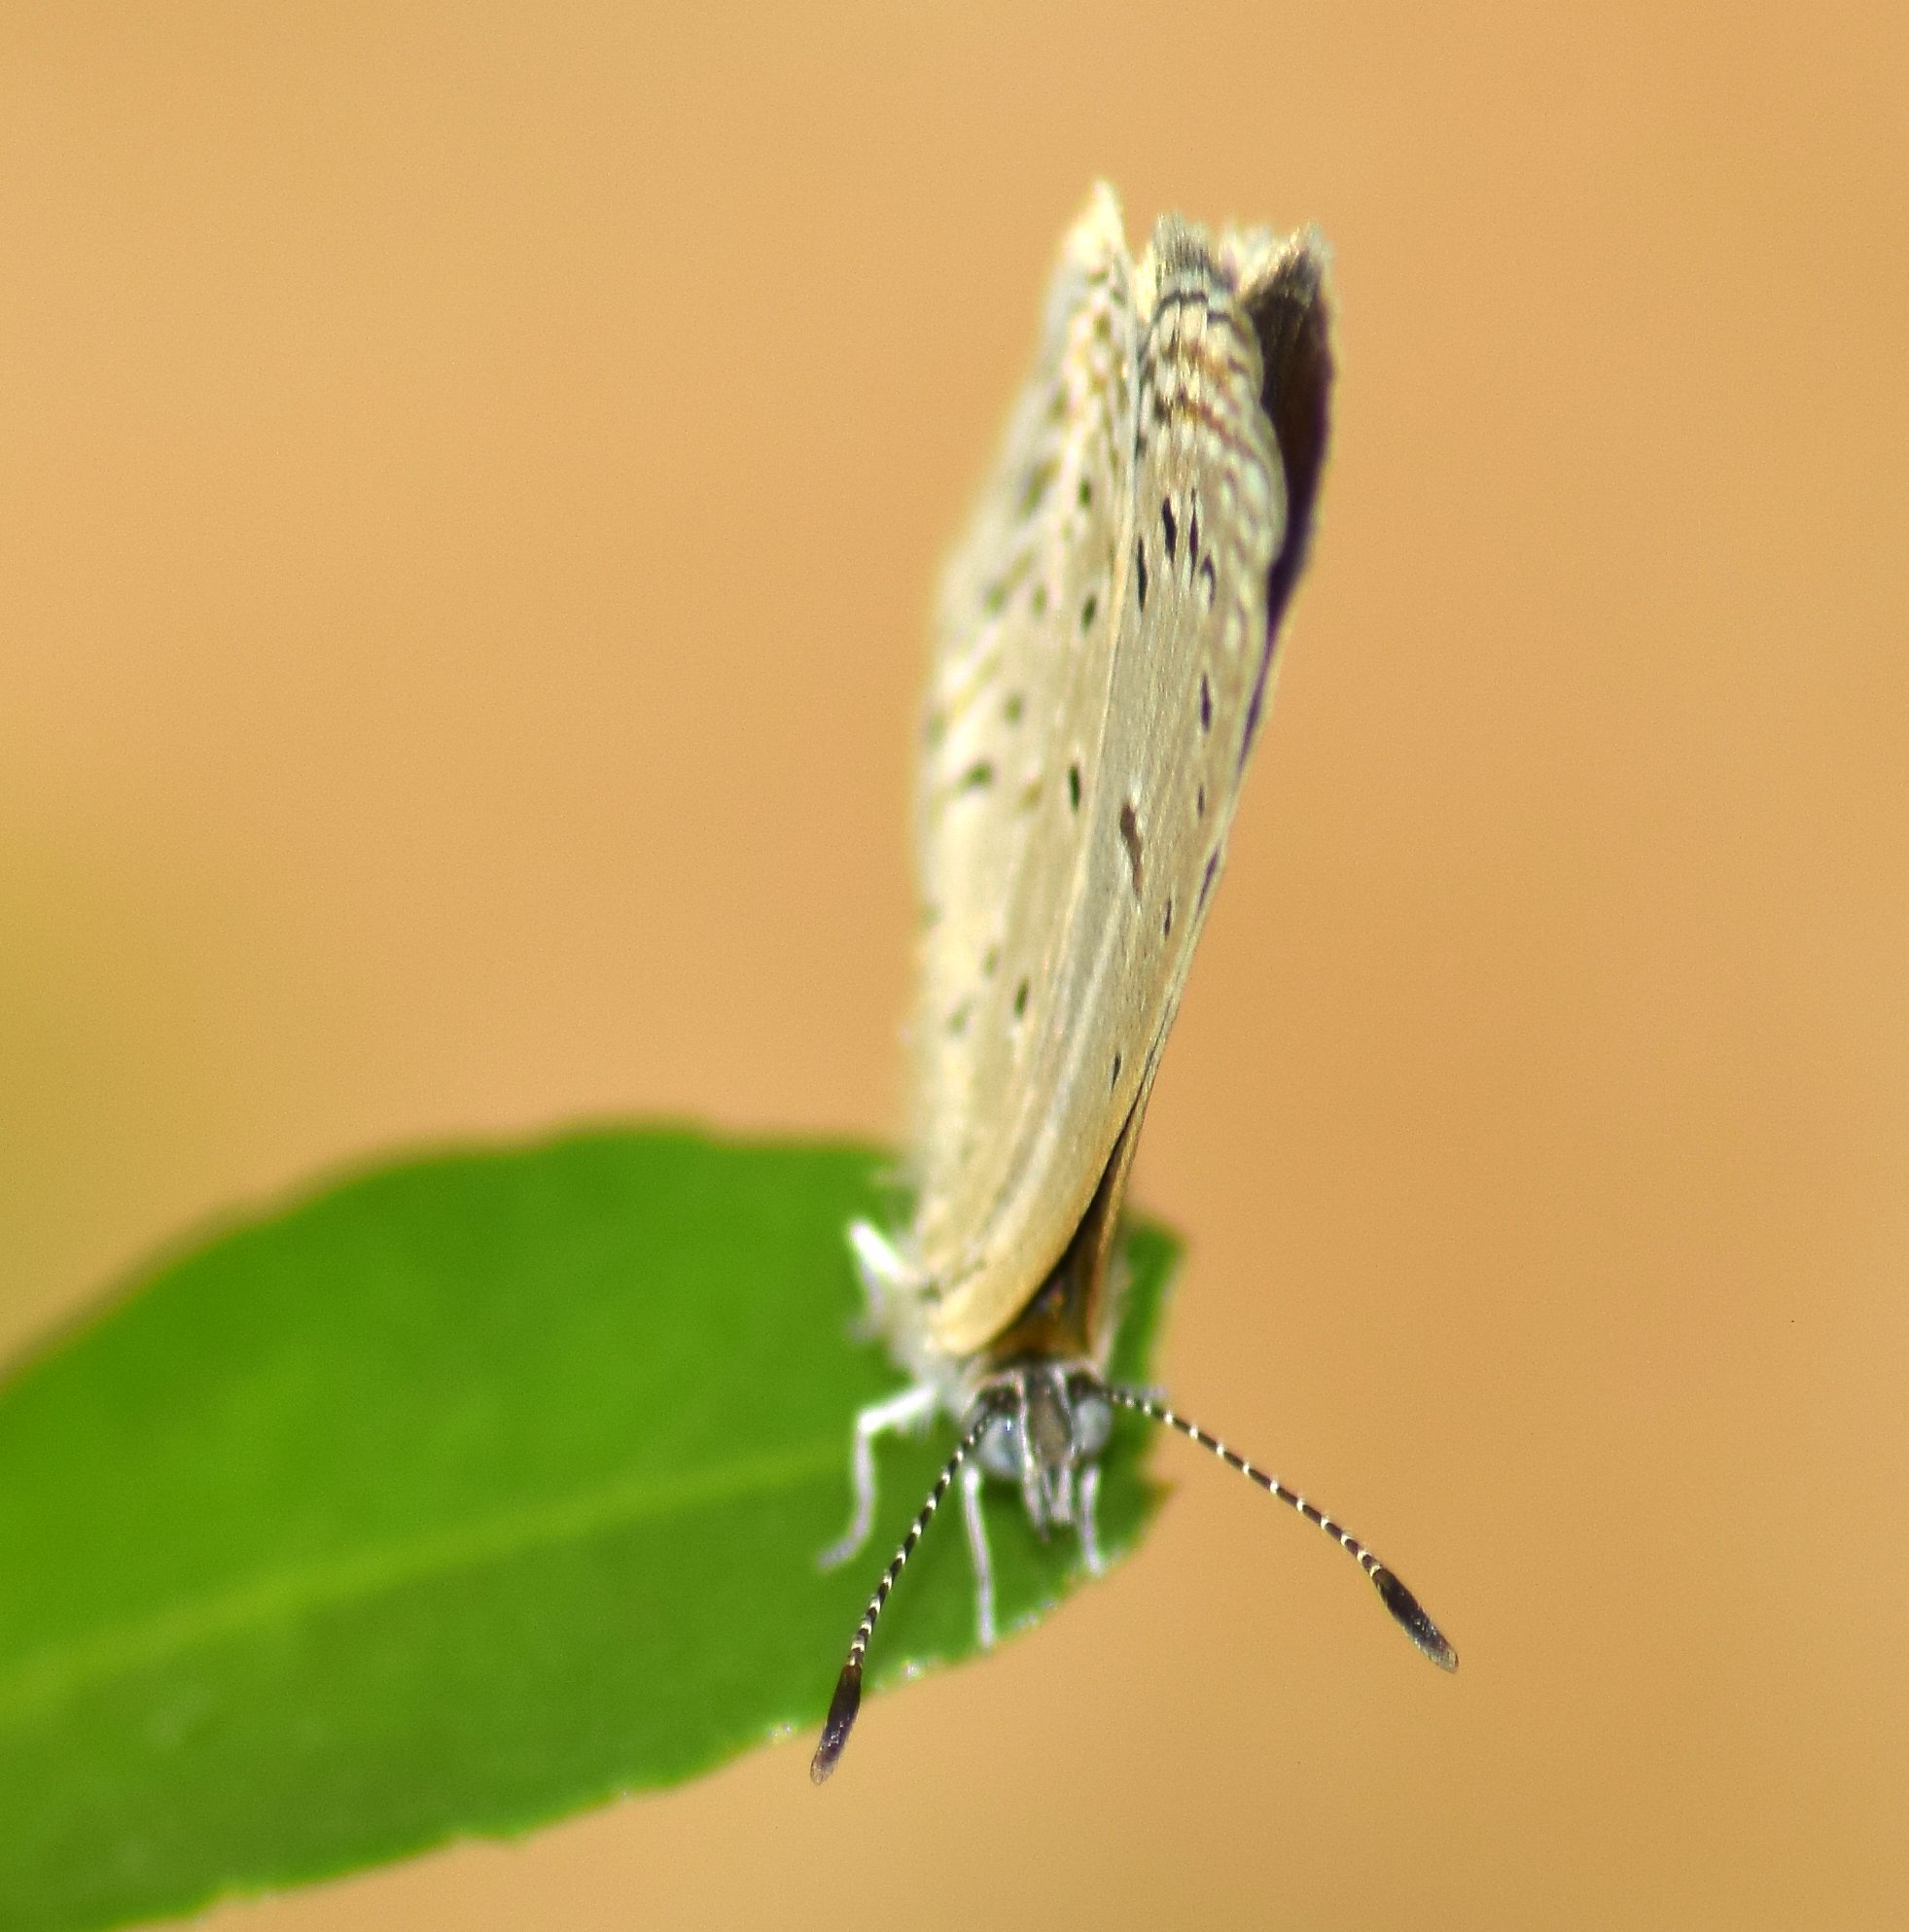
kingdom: Animalia
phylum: Arthropoda
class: Insecta
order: Lepidoptera
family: Lycaenidae
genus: Zizula
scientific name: Zizula hylax
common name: Gaika blue
